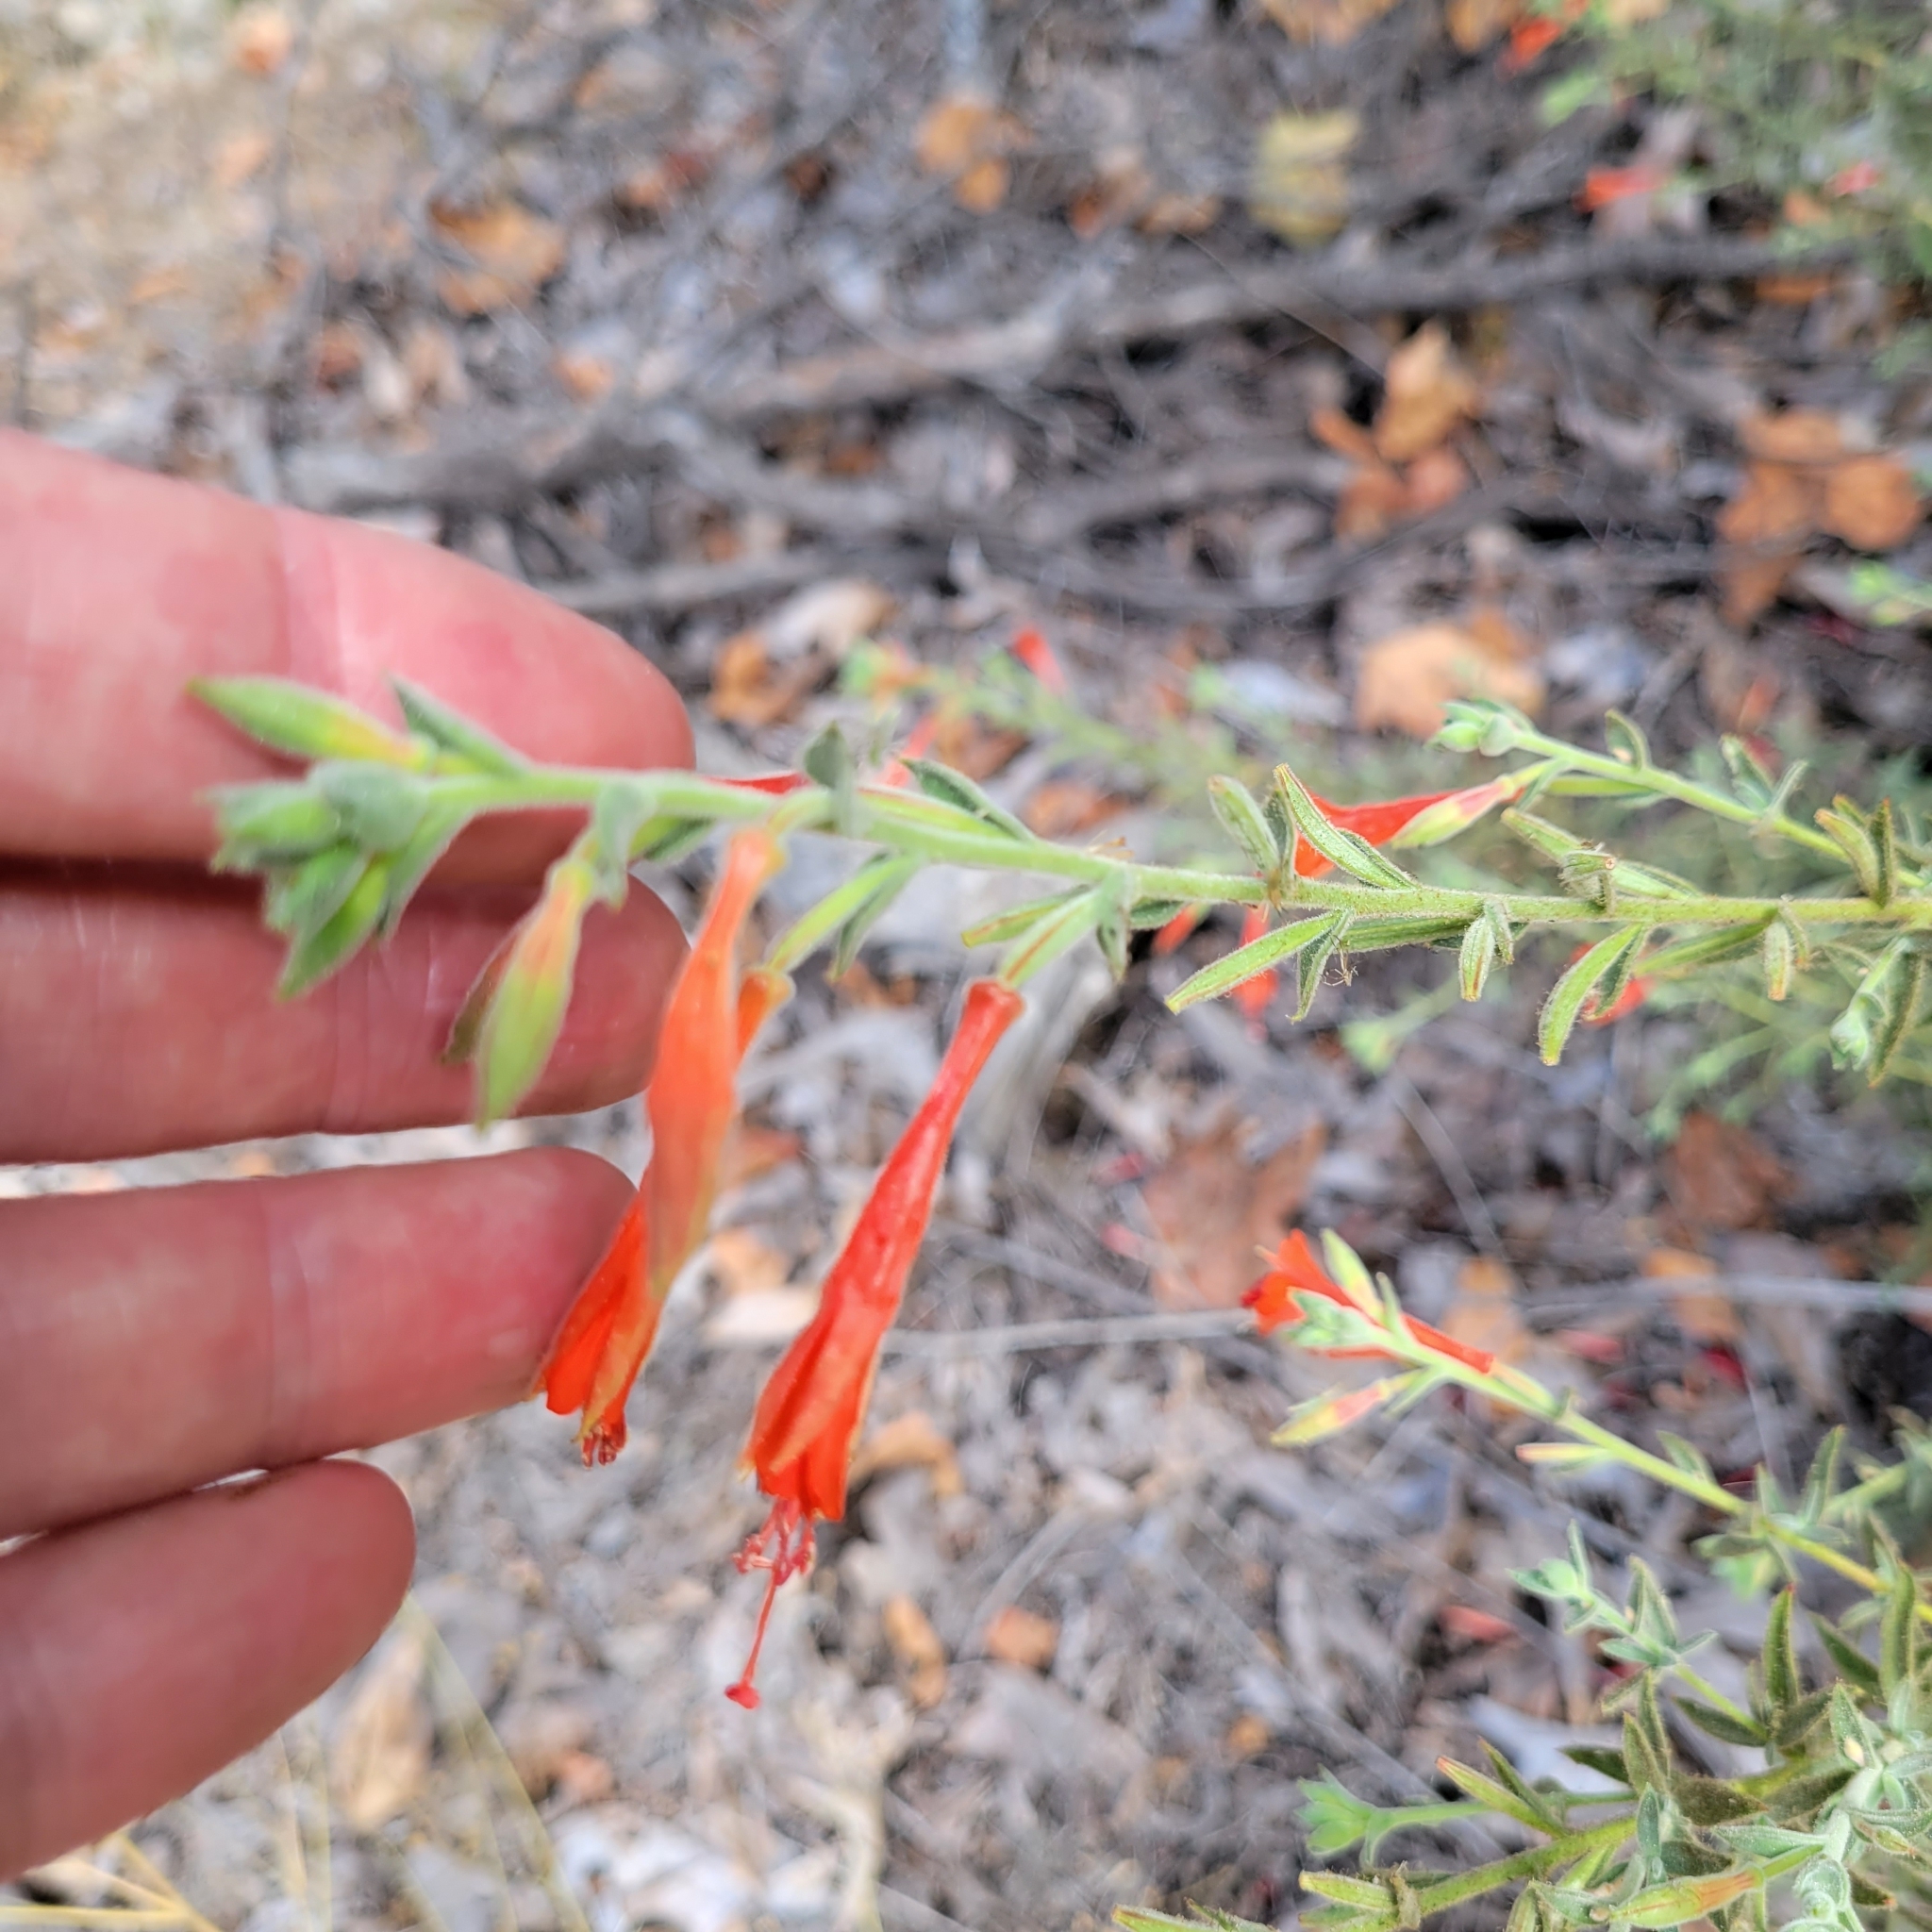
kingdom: Plantae
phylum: Tracheophyta
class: Magnoliopsida
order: Myrtales
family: Onagraceae
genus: Epilobium
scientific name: Epilobium canum
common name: California-fuchsia
